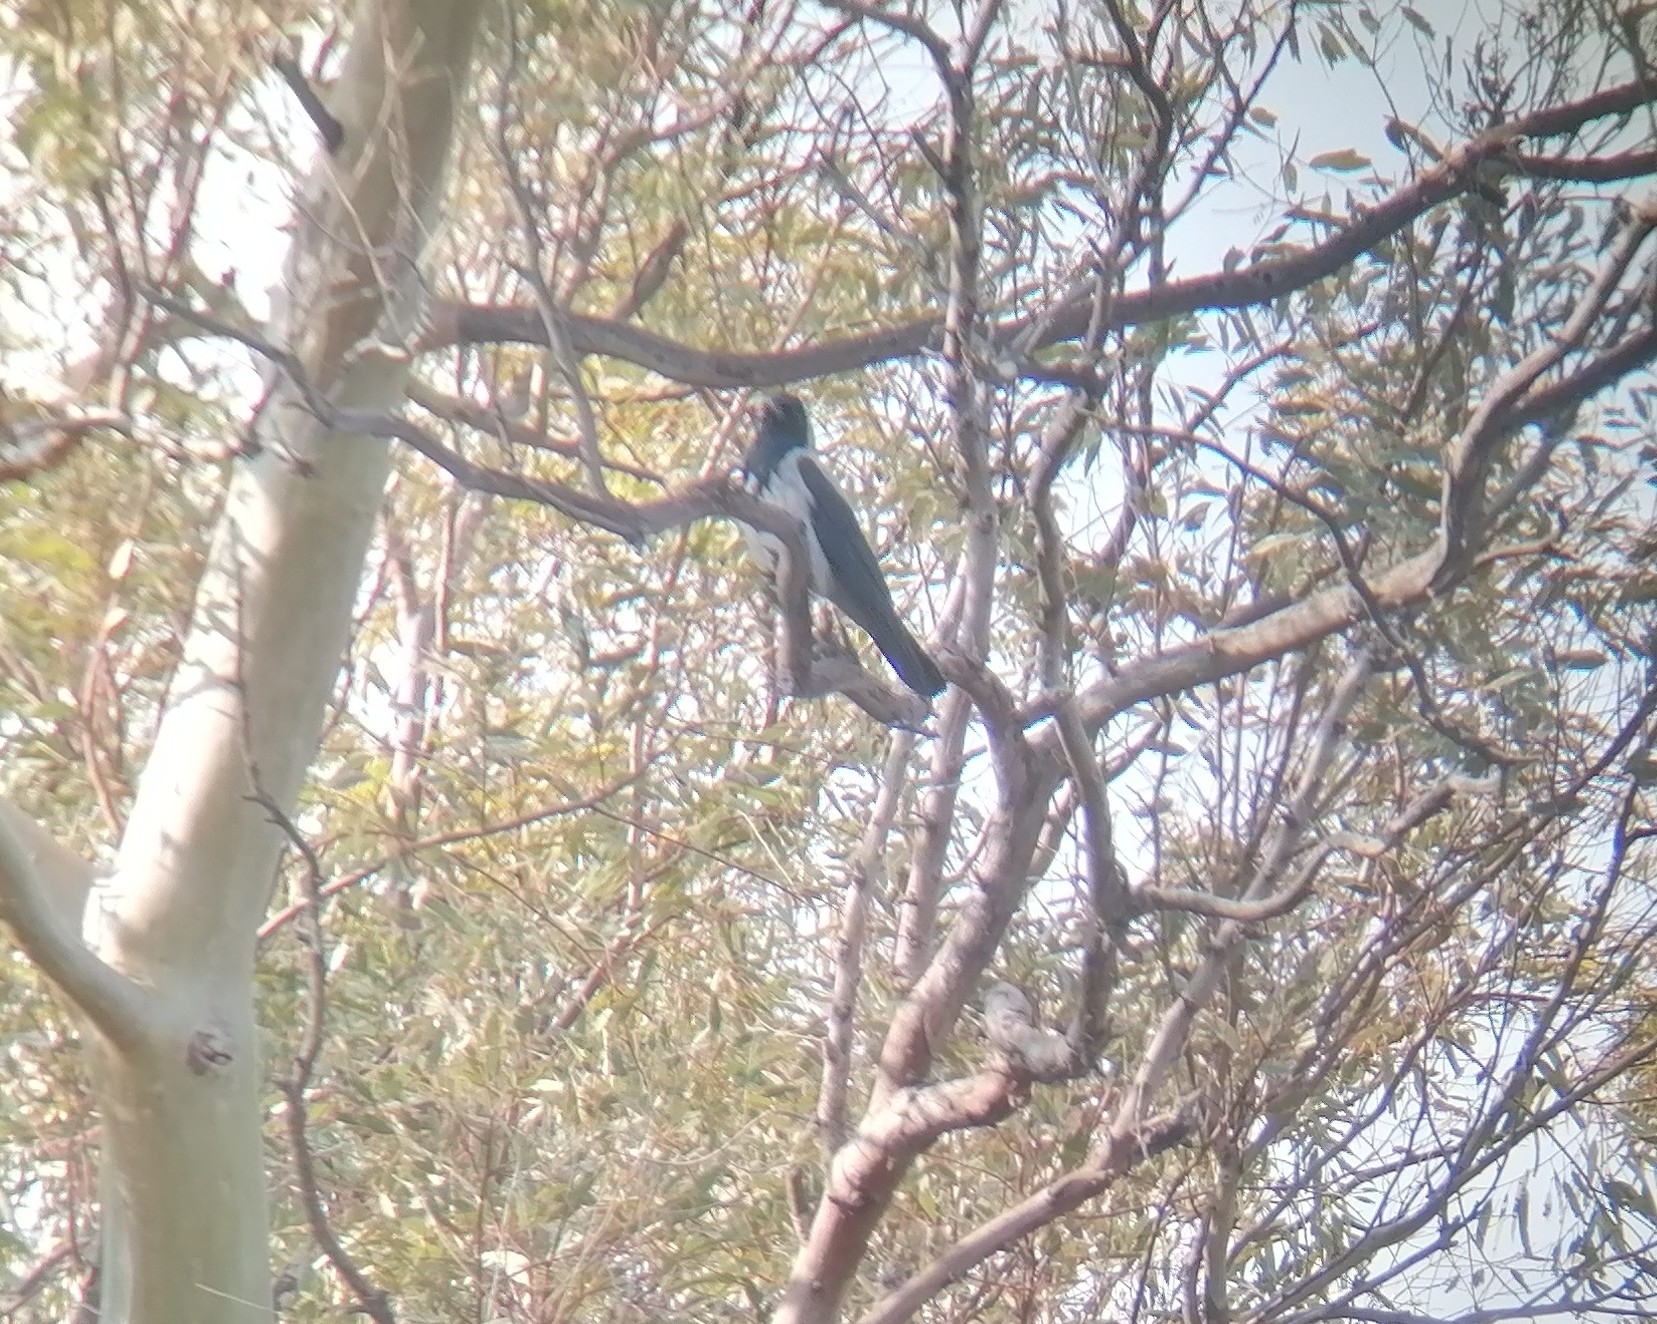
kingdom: Animalia
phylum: Chordata
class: Aves
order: Passeriformes
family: Corvidae
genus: Corvus
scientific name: Corvus cornix
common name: Hooded crow
